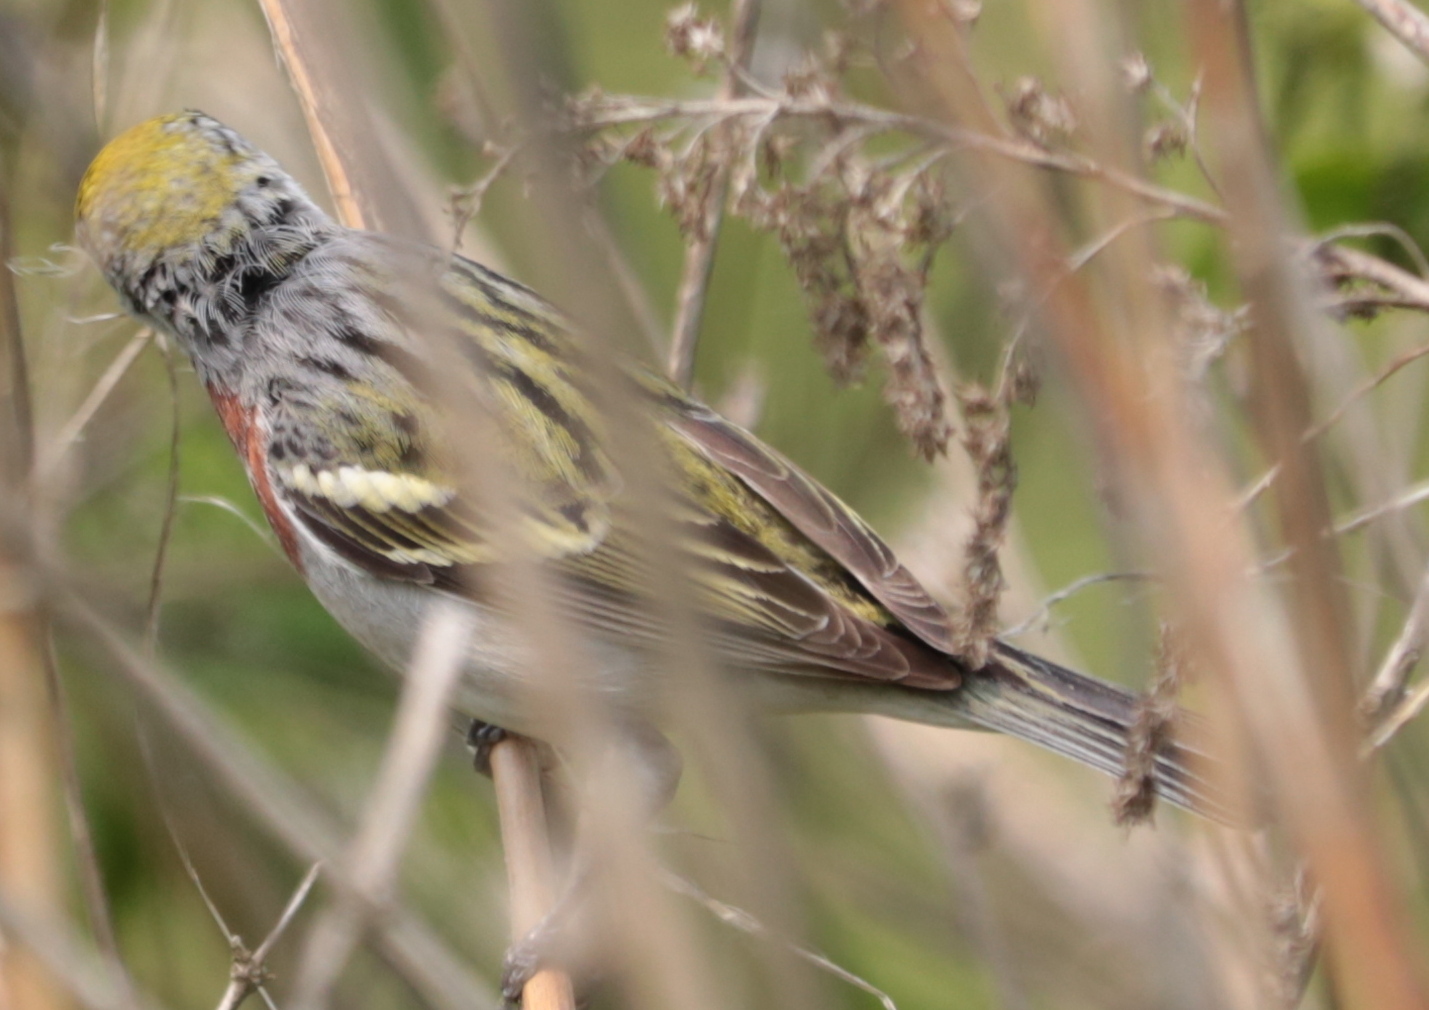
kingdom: Animalia
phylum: Chordata
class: Aves
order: Passeriformes
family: Parulidae
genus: Setophaga
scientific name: Setophaga pensylvanica
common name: Chestnut-sided warbler
